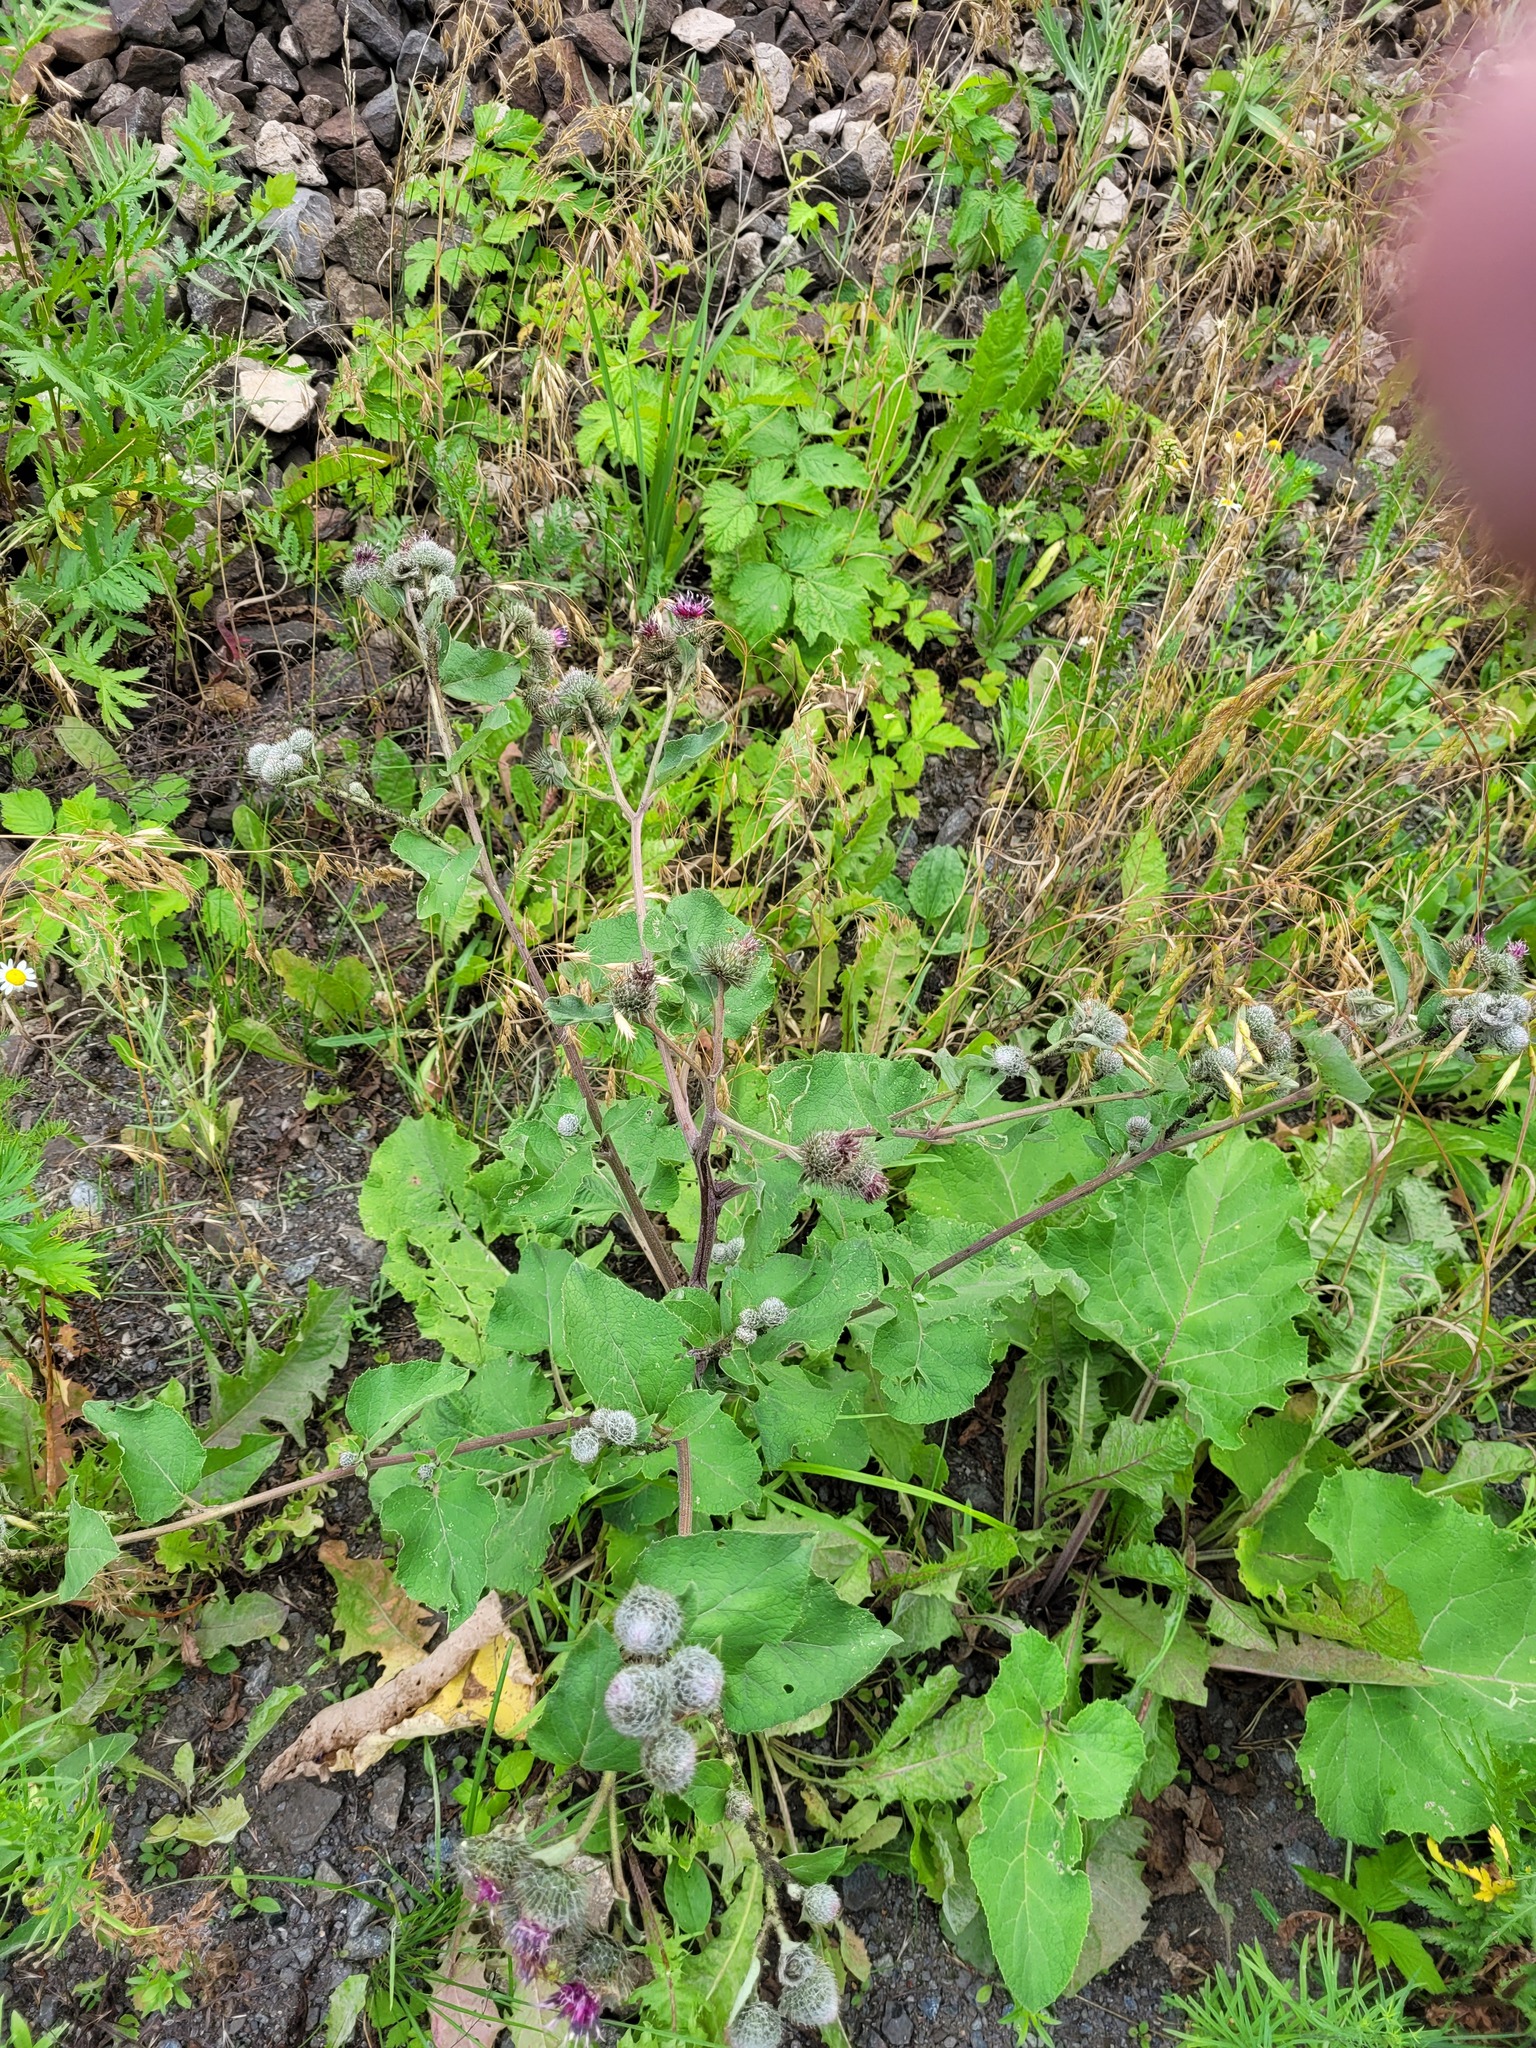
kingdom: Plantae
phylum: Tracheophyta
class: Magnoliopsida
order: Asterales
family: Asteraceae
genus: Arctium
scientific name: Arctium tomentosum
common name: Woolly burdock
